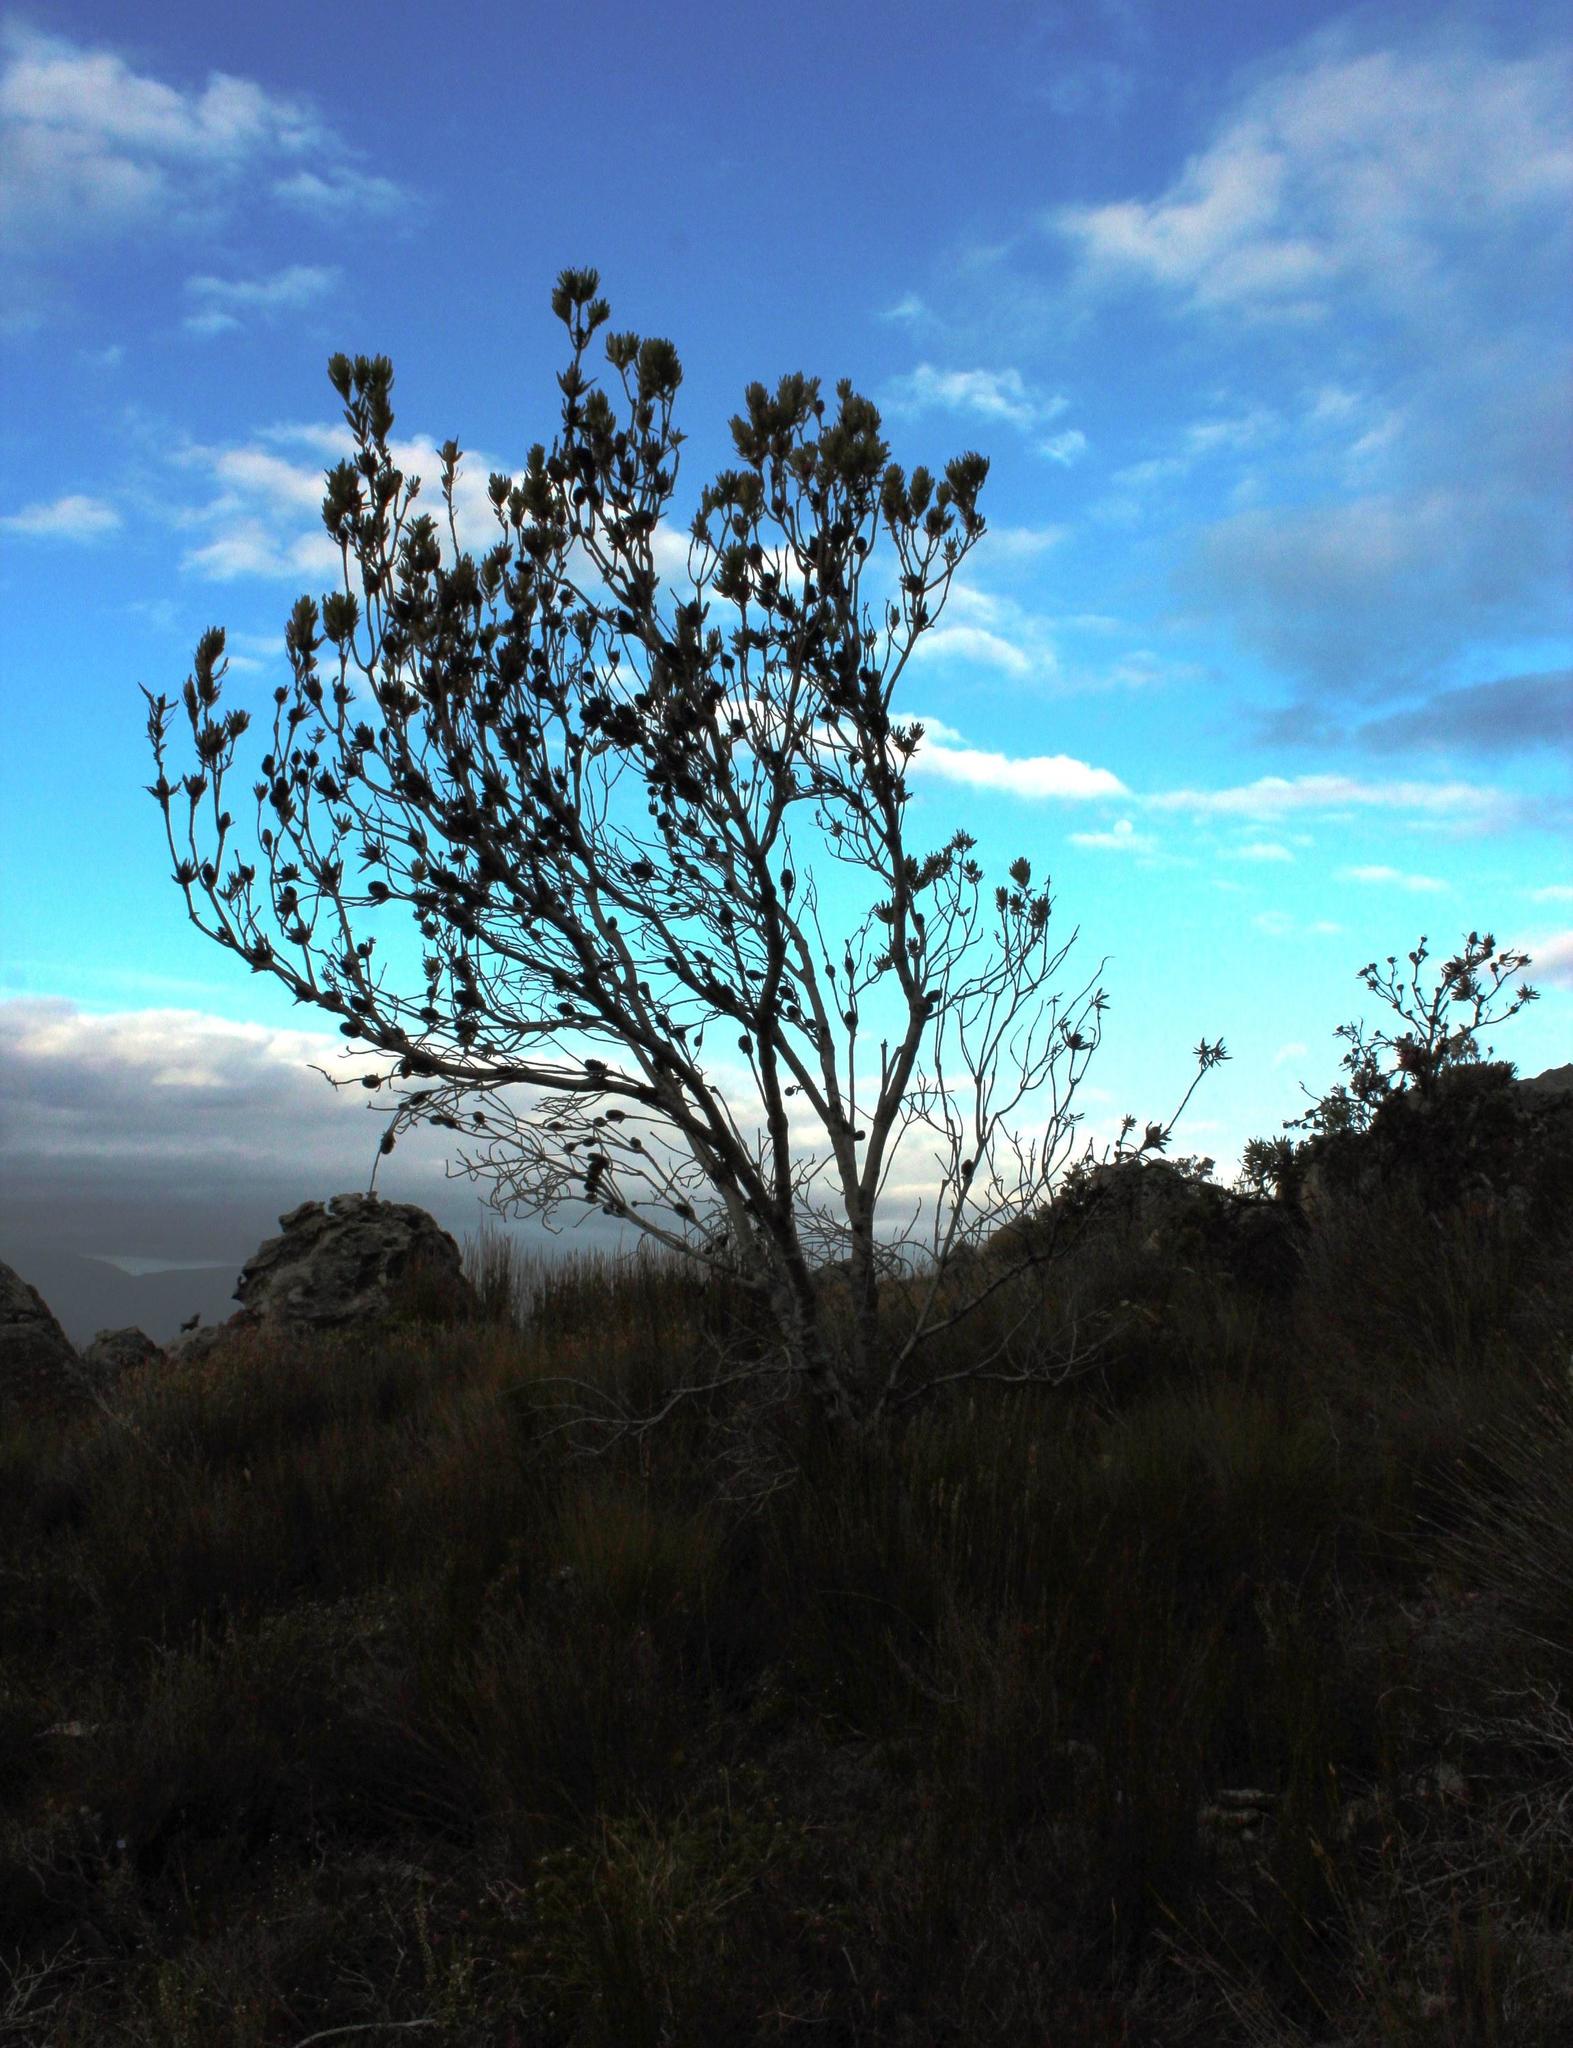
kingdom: Plantae
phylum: Tracheophyta
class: Magnoliopsida
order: Proteales
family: Proteaceae
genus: Leucadendron
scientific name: Leucadendron laureolum
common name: Golden sunshinebush
